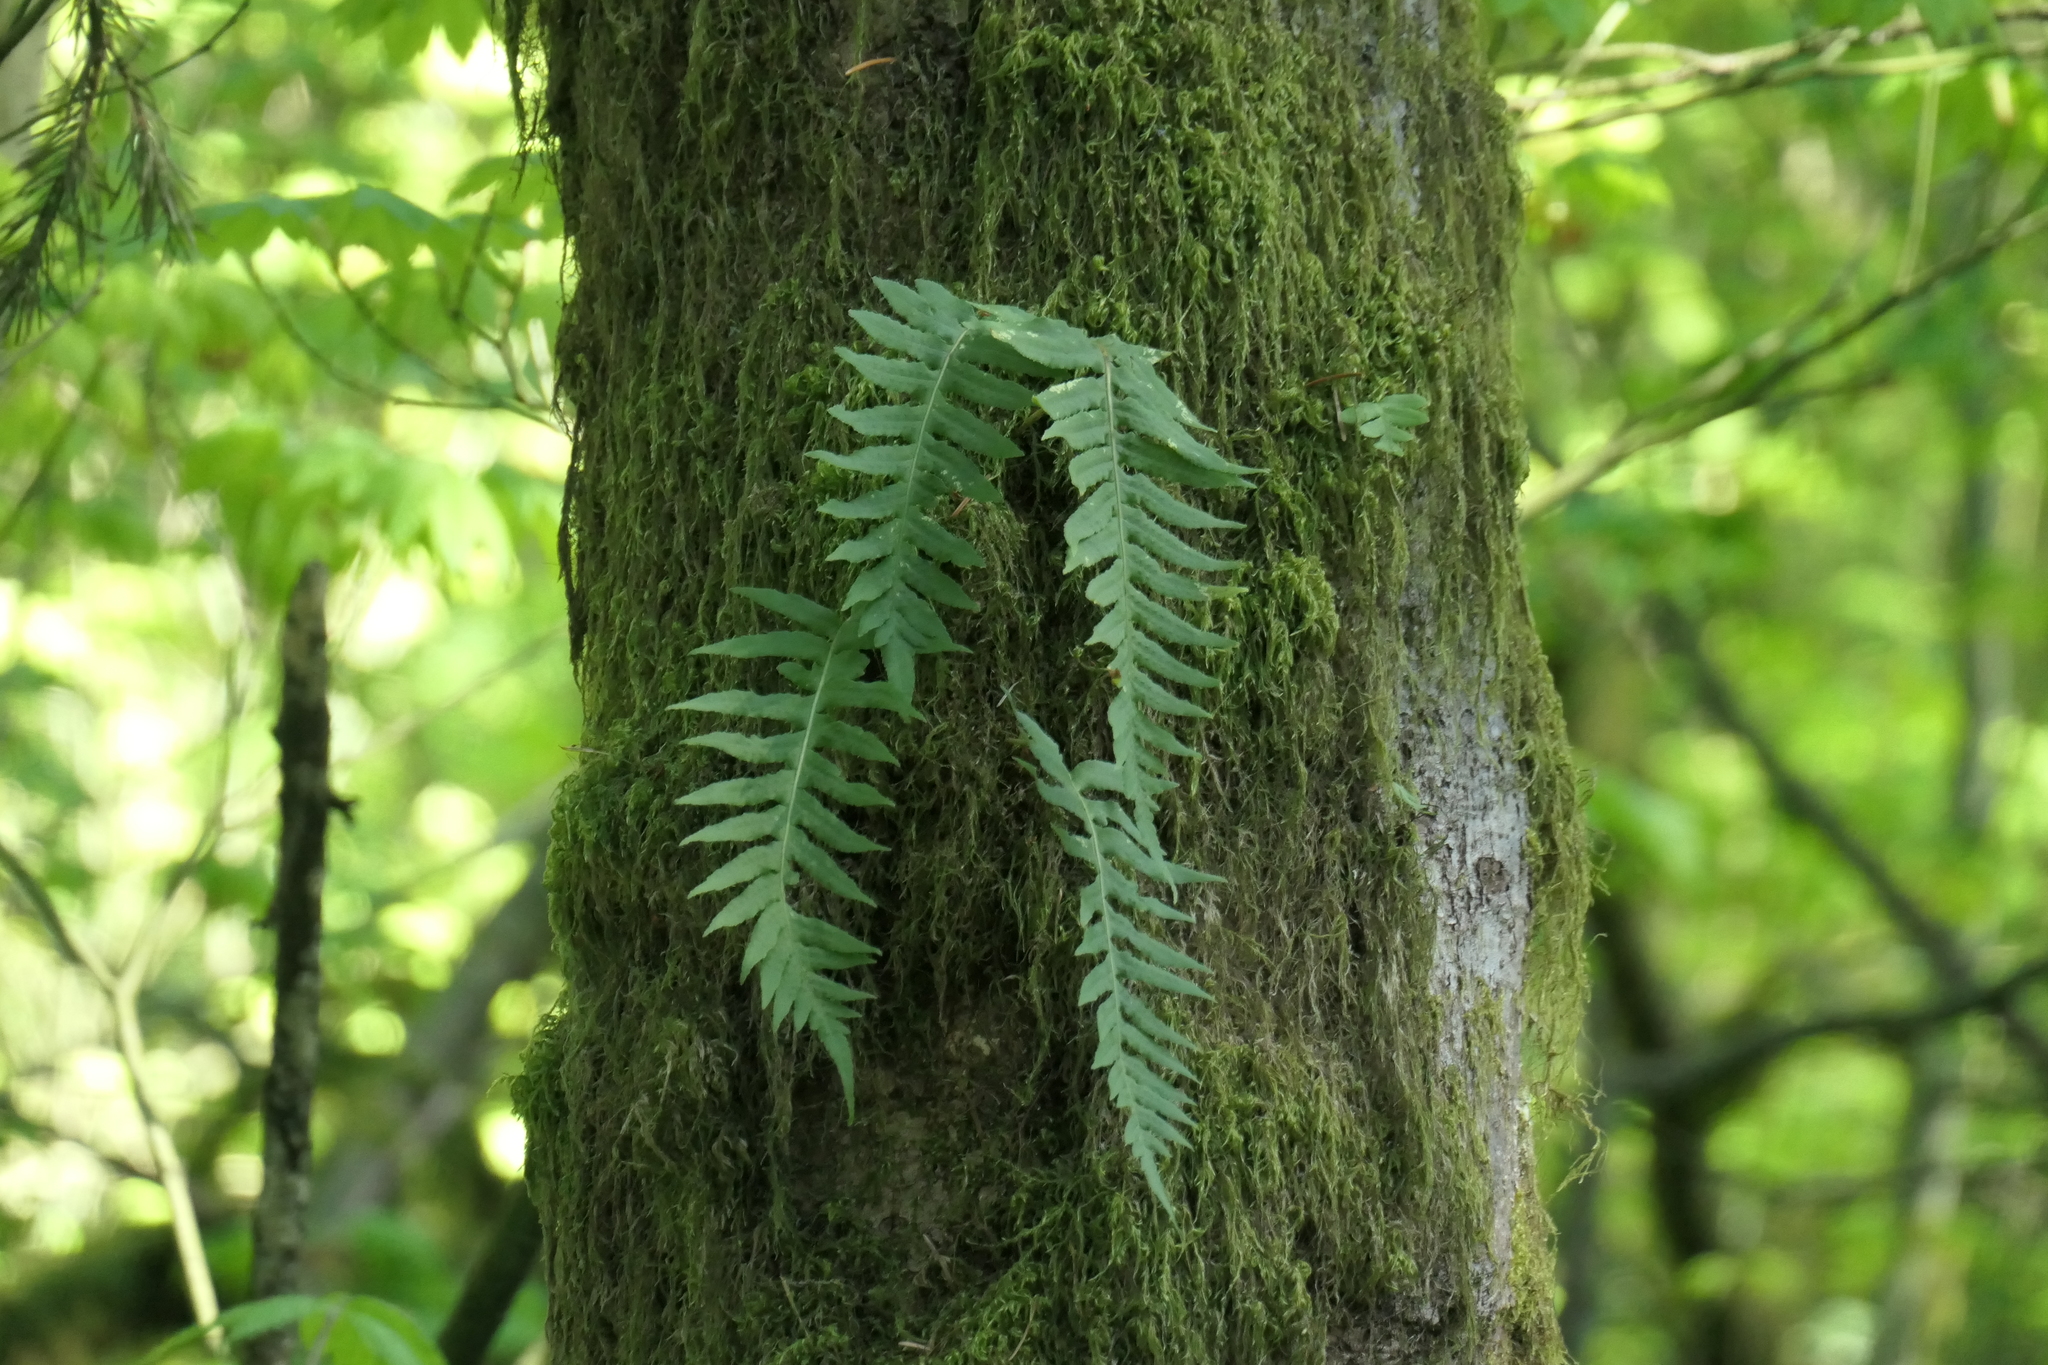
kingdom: Plantae
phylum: Tracheophyta
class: Polypodiopsida
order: Polypodiales
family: Polypodiaceae
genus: Polypodium
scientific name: Polypodium glycyrrhiza
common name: Licorice fern
